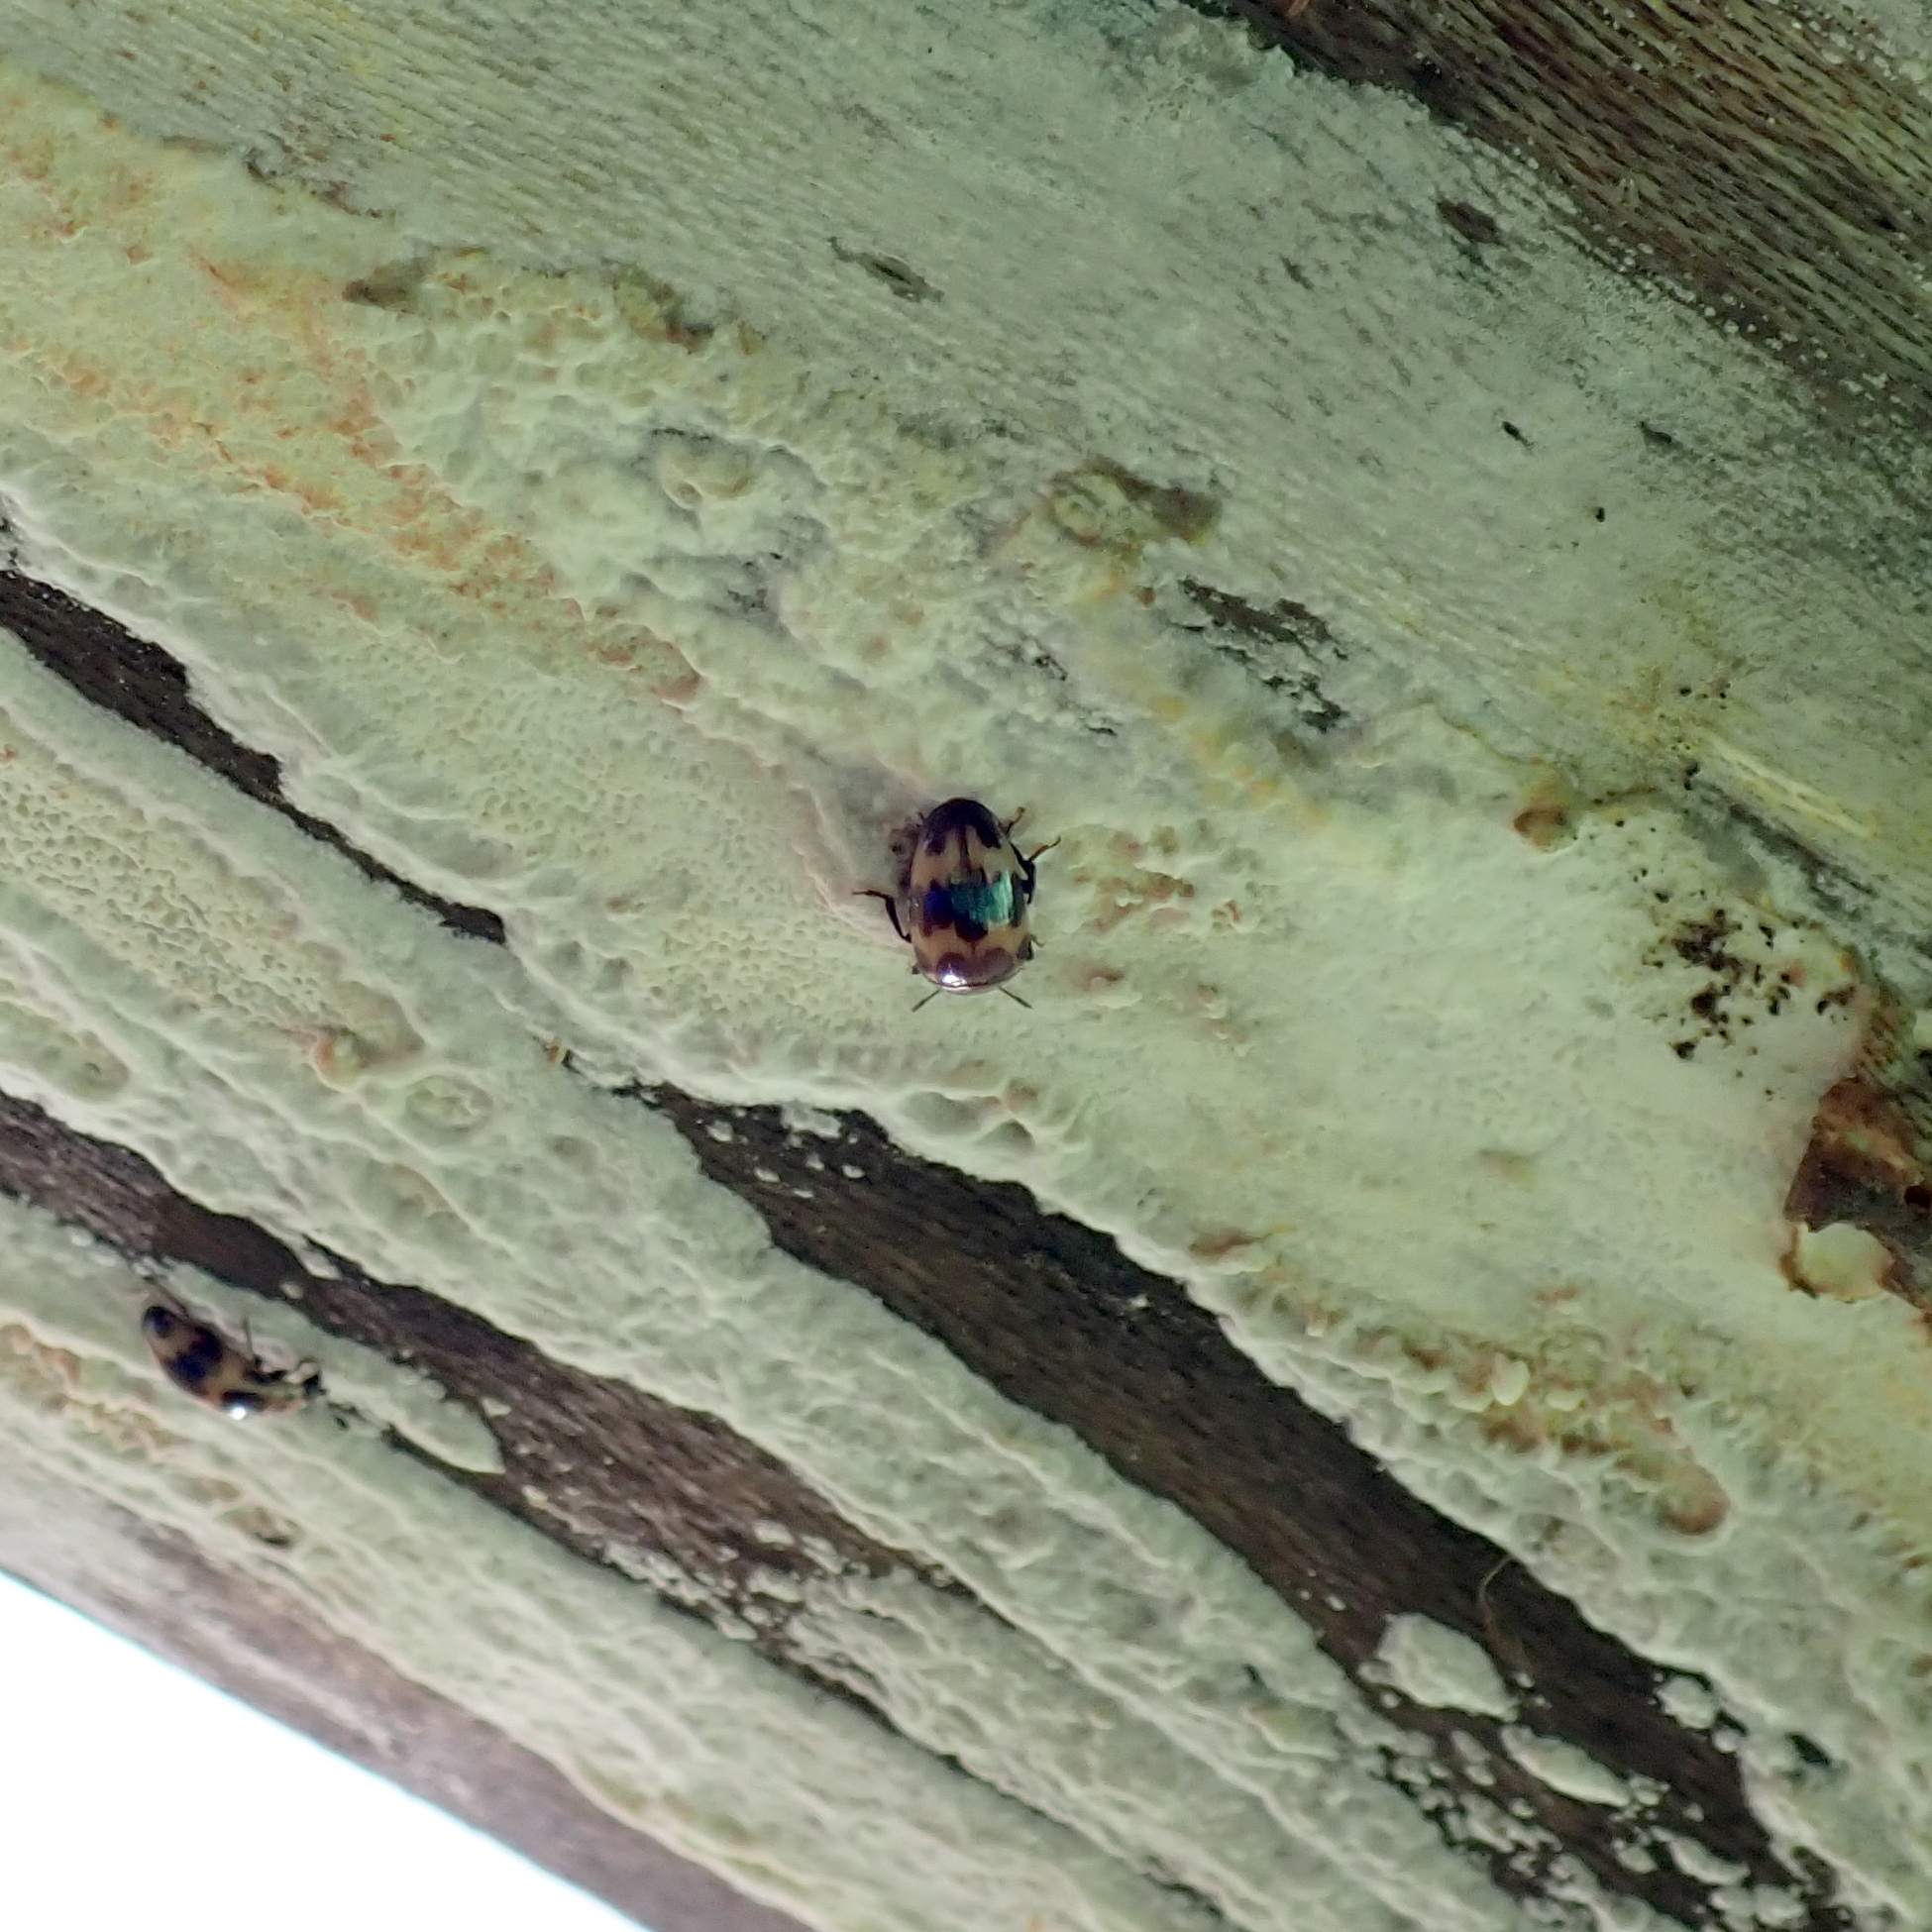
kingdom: Animalia
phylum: Arthropoda
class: Insecta
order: Coleoptera
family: Erotylidae
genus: Ischyrus
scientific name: Ischyrus quadripunctatus
